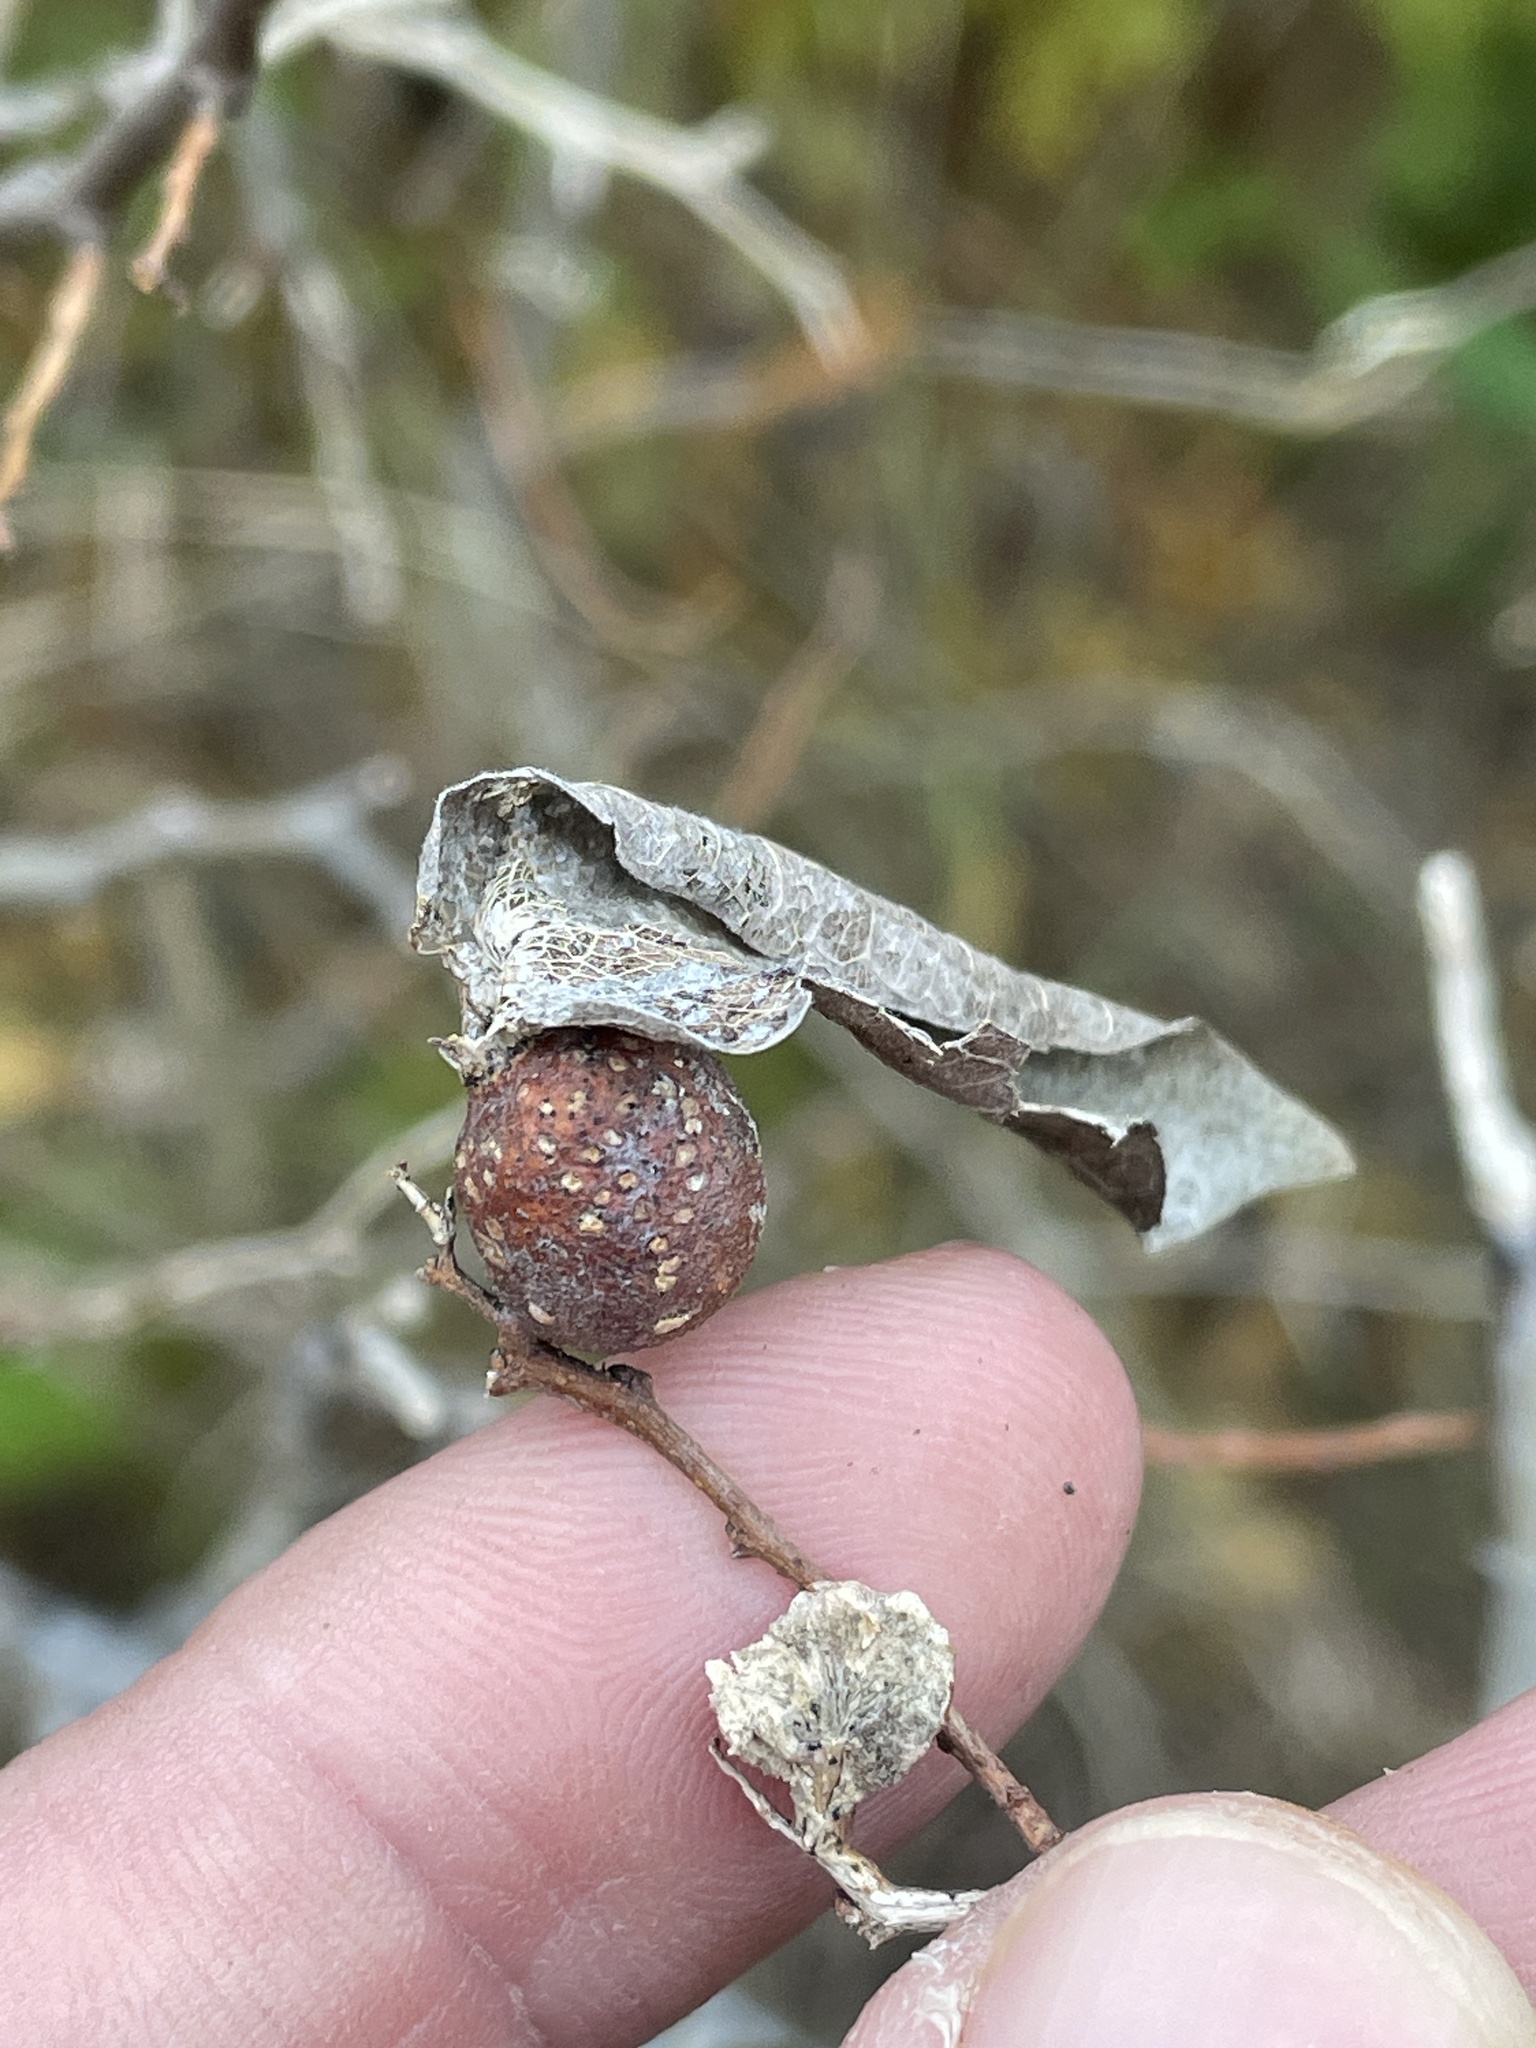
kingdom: Animalia
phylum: Arthropoda
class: Insecta
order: Hemiptera
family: Aphalaridae
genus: Pachypsylla
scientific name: Pachypsylla venusta
